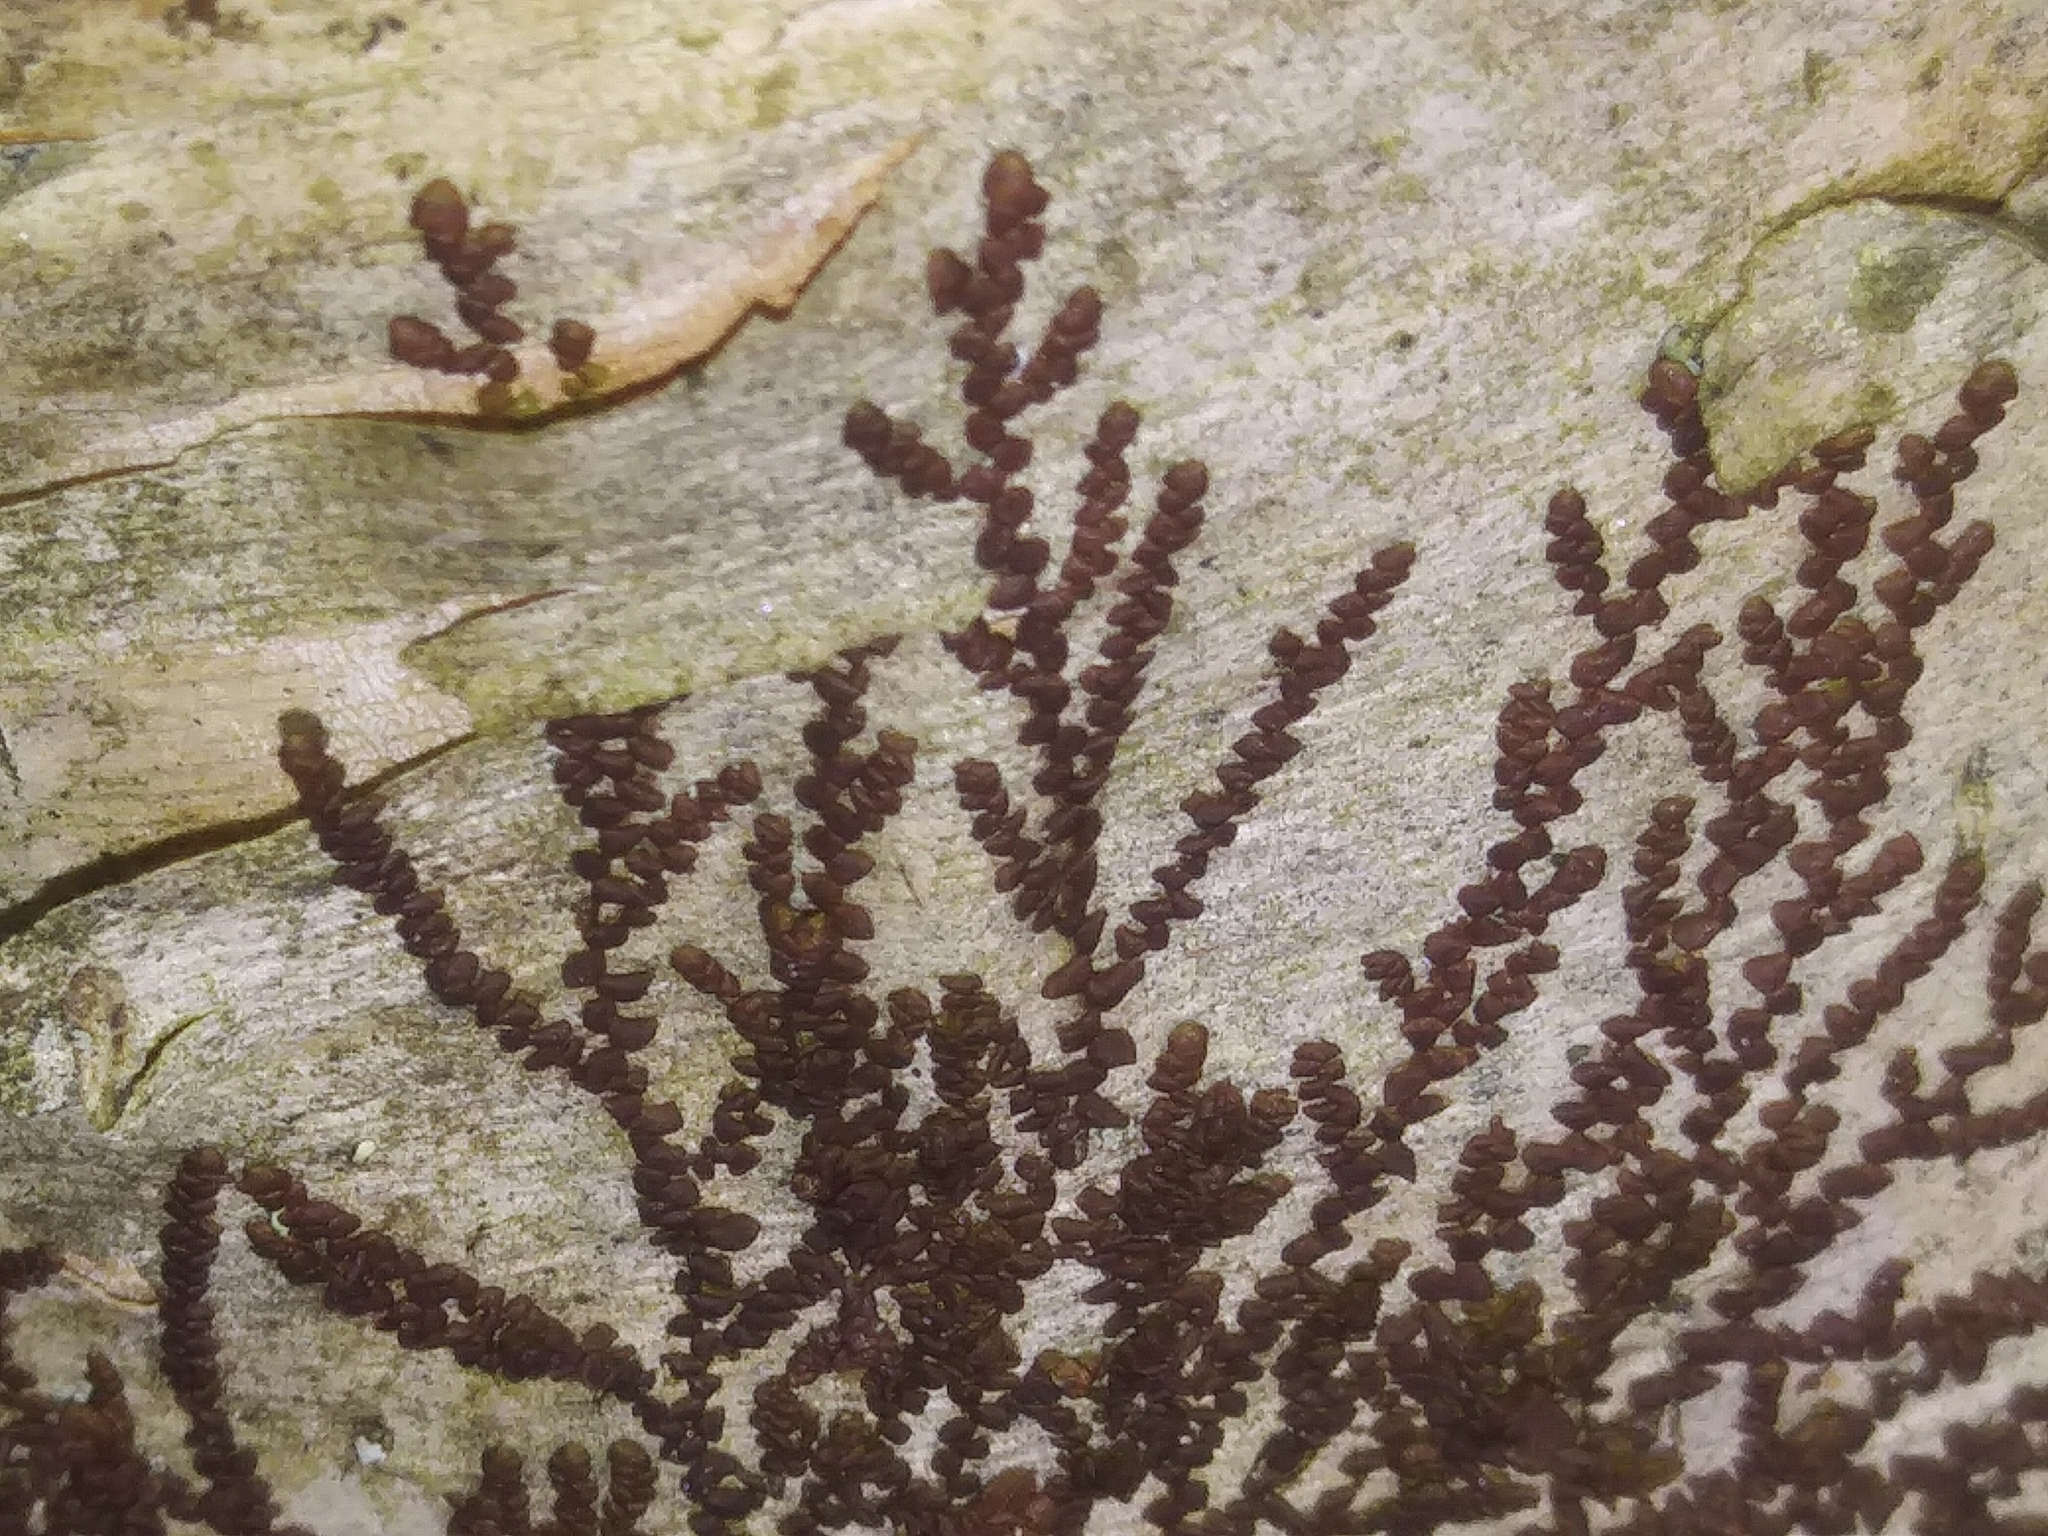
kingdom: Plantae
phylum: Marchantiophyta
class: Jungermanniopsida
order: Porellales
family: Frullaniaceae
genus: Frullania
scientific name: Frullania eboracensis
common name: New york scalewort
